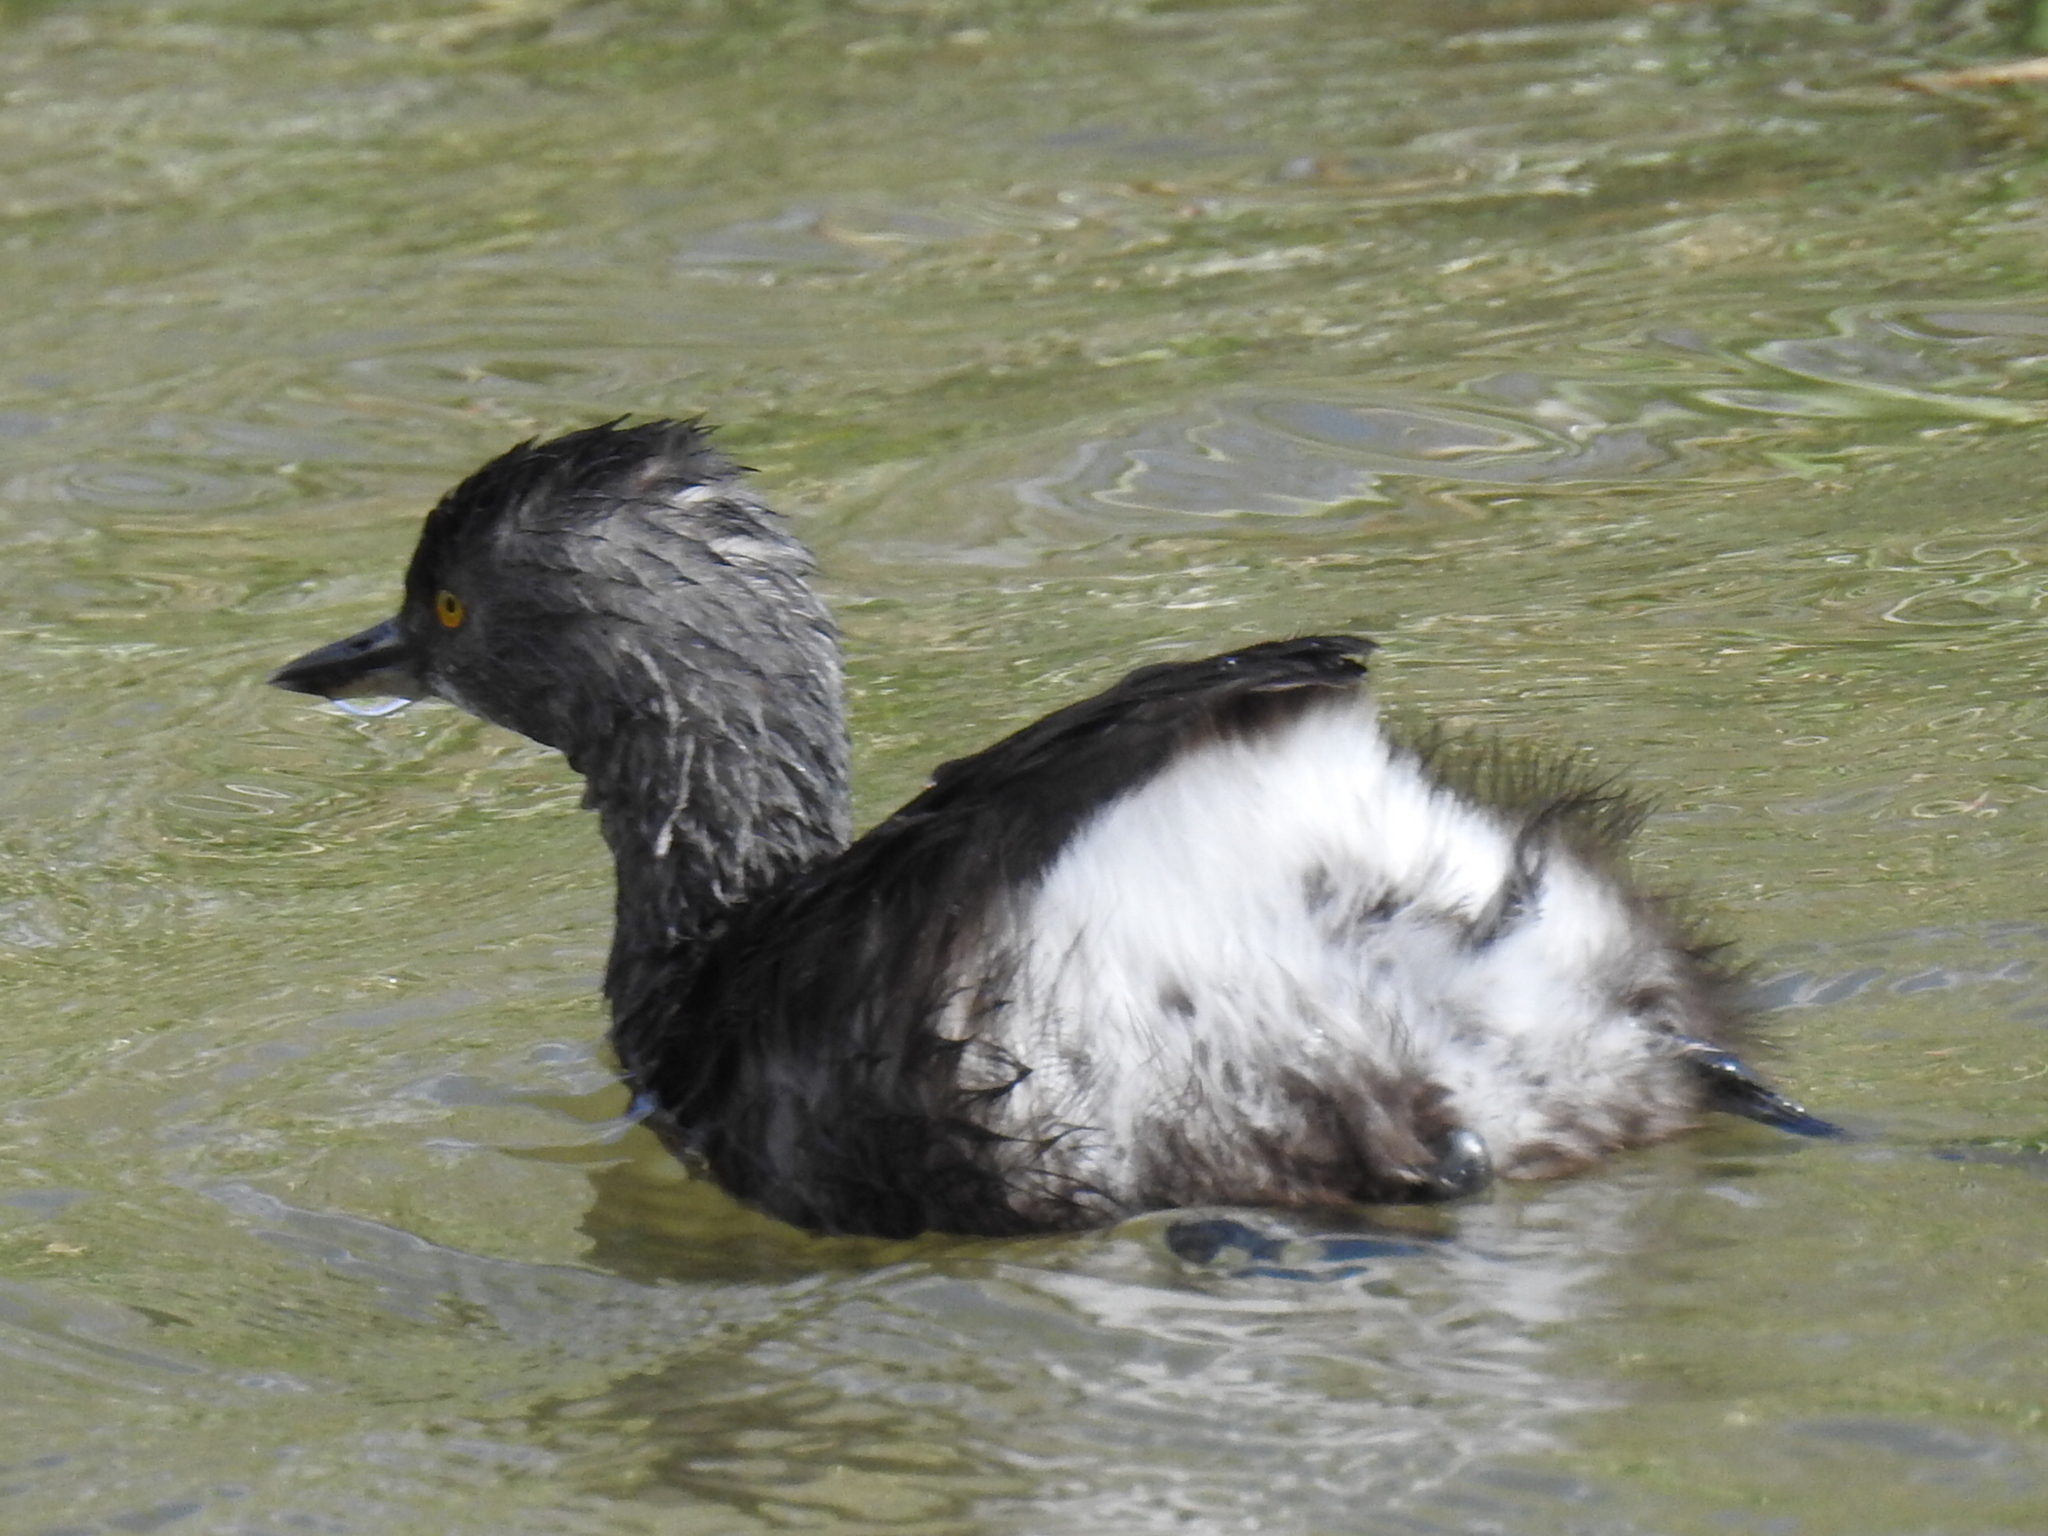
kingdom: Animalia
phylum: Chordata
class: Aves
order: Podicipediformes
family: Podicipedidae
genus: Tachybaptus
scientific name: Tachybaptus dominicus
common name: Least grebe
